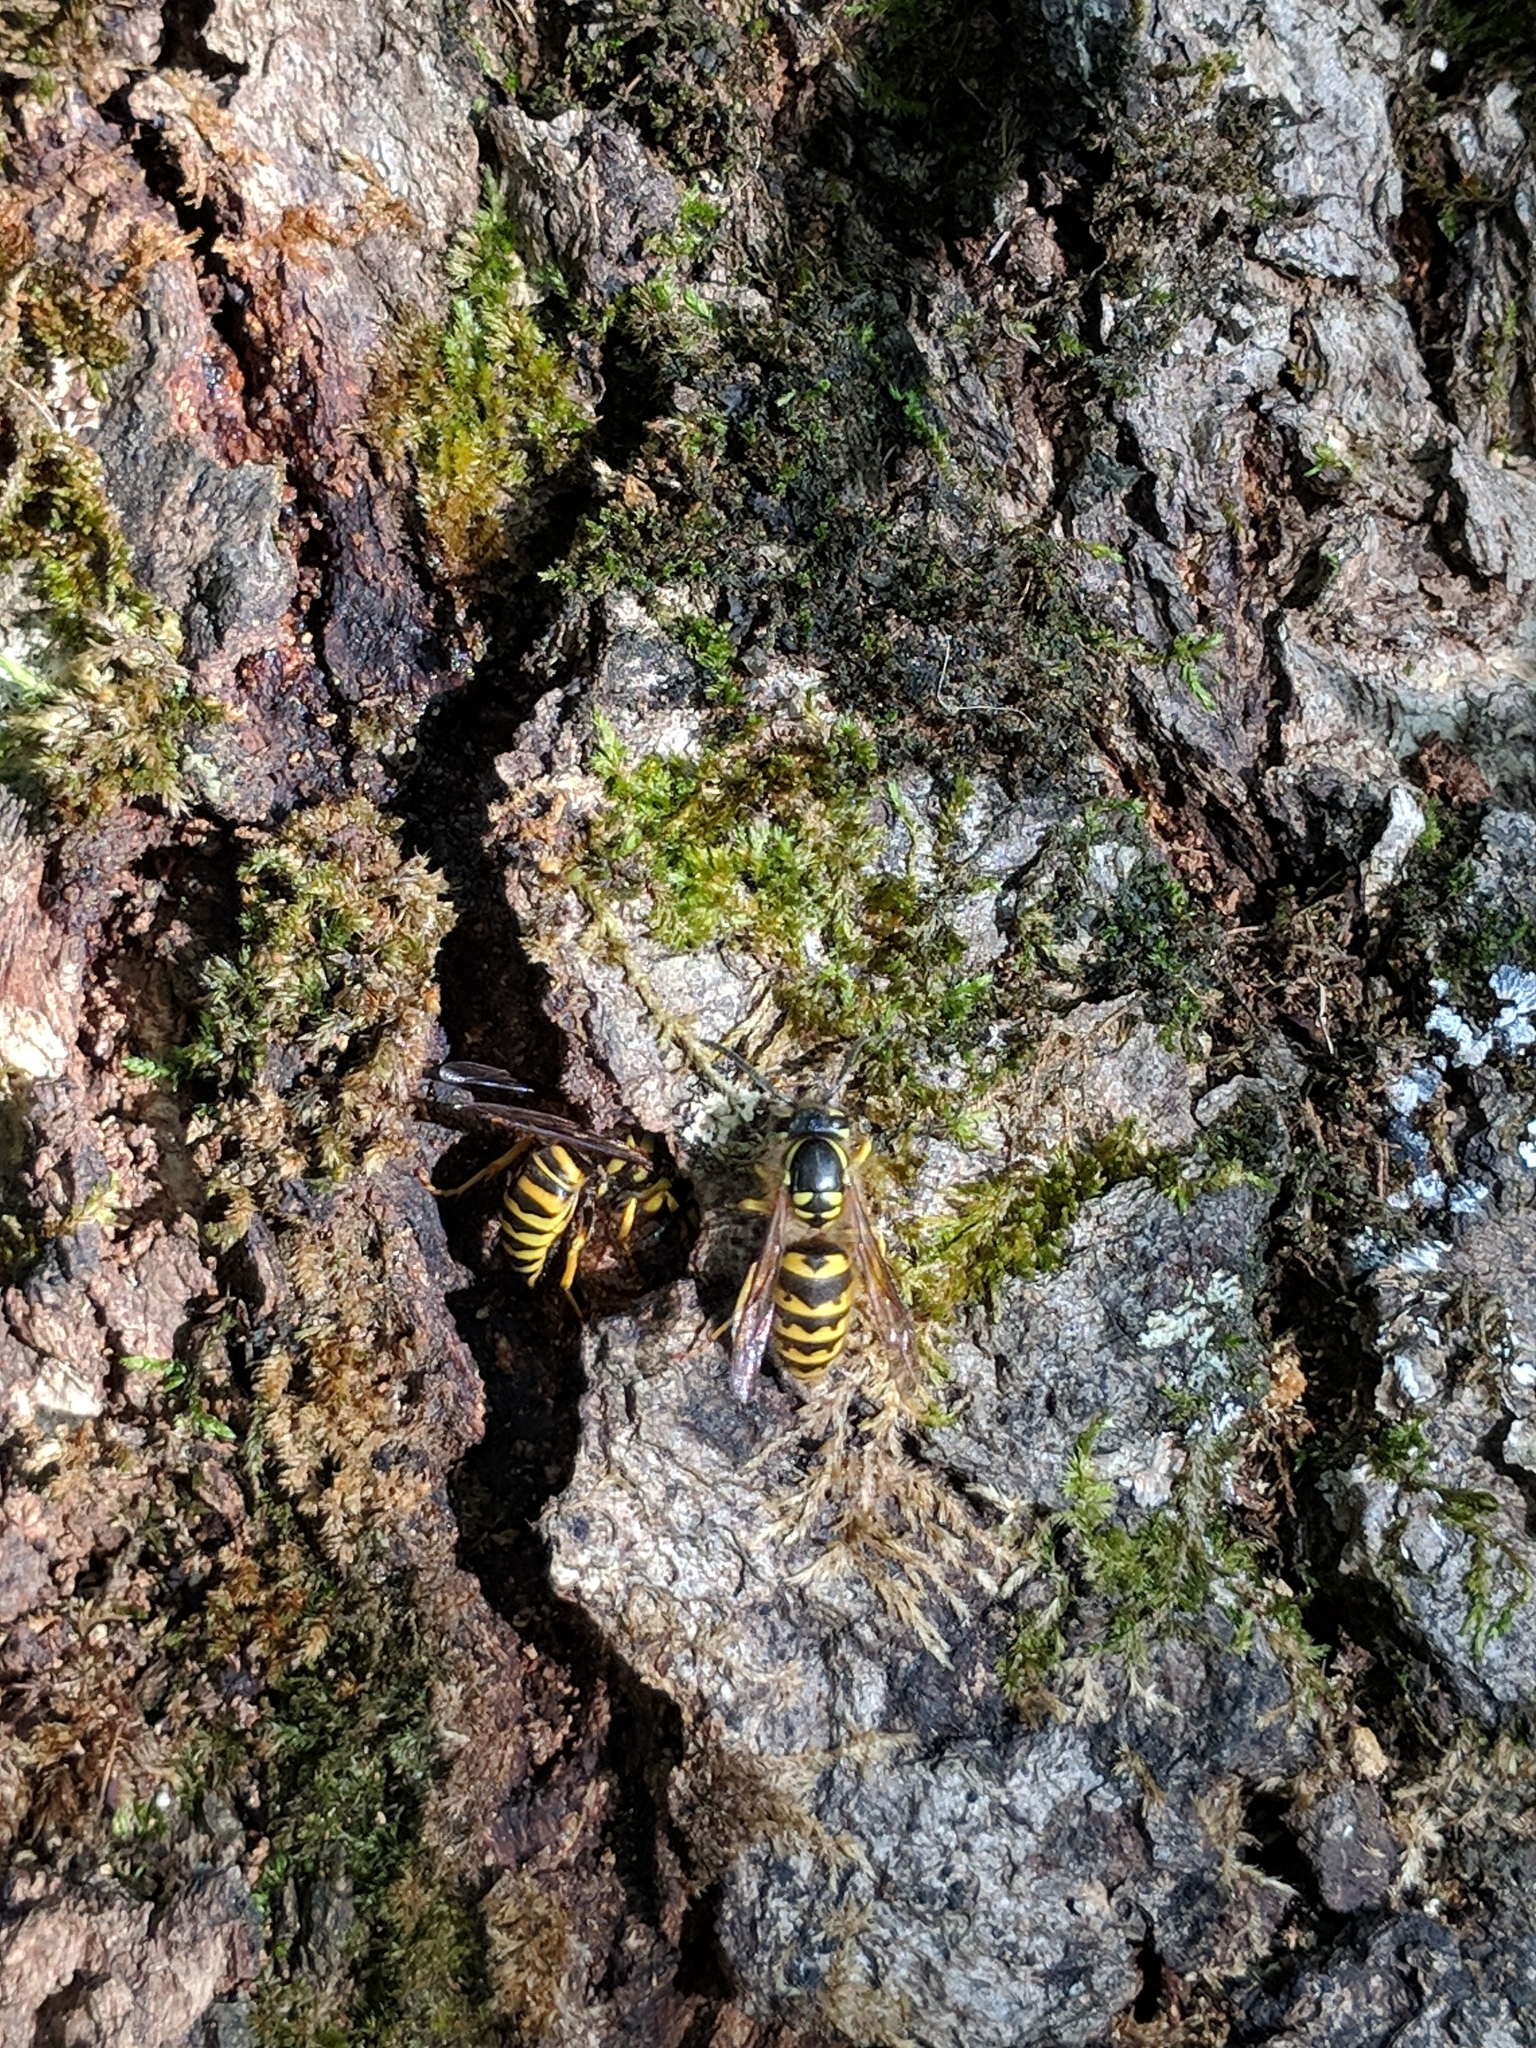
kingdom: Animalia
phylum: Arthropoda
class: Insecta
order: Hymenoptera
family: Vespidae
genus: Vespula
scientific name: Vespula flavopilosa
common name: Downy yellowjacket
